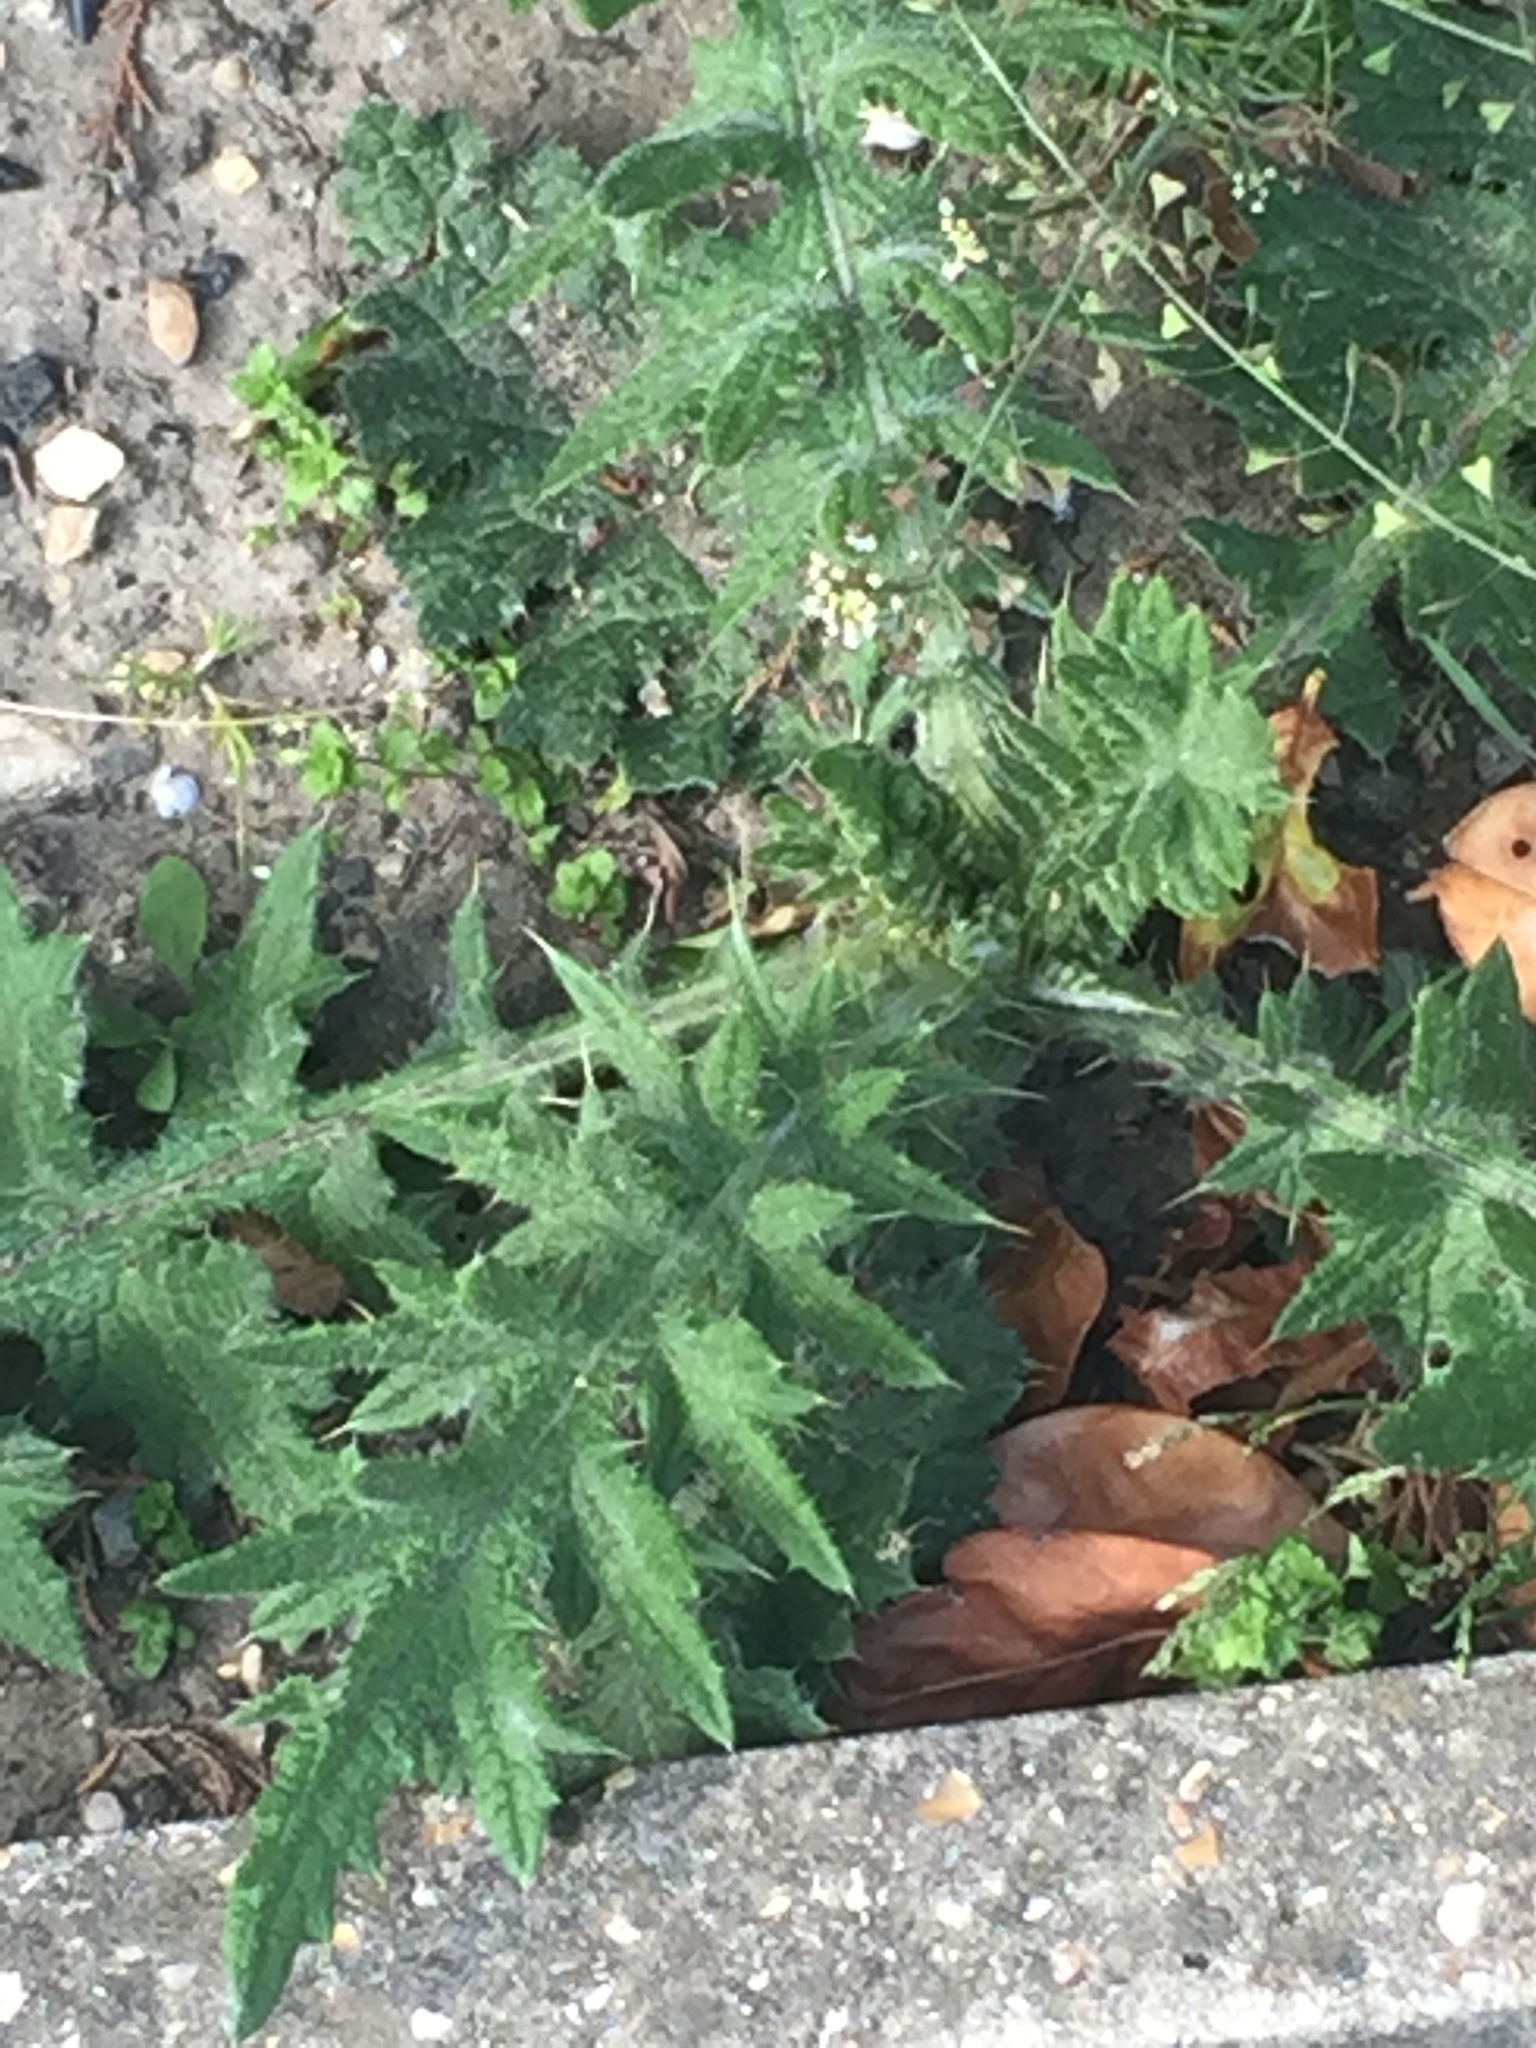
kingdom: Plantae
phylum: Tracheophyta
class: Magnoliopsida
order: Asterales
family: Asteraceae
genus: Cirsium
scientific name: Cirsium vulgare
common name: Bull thistle
